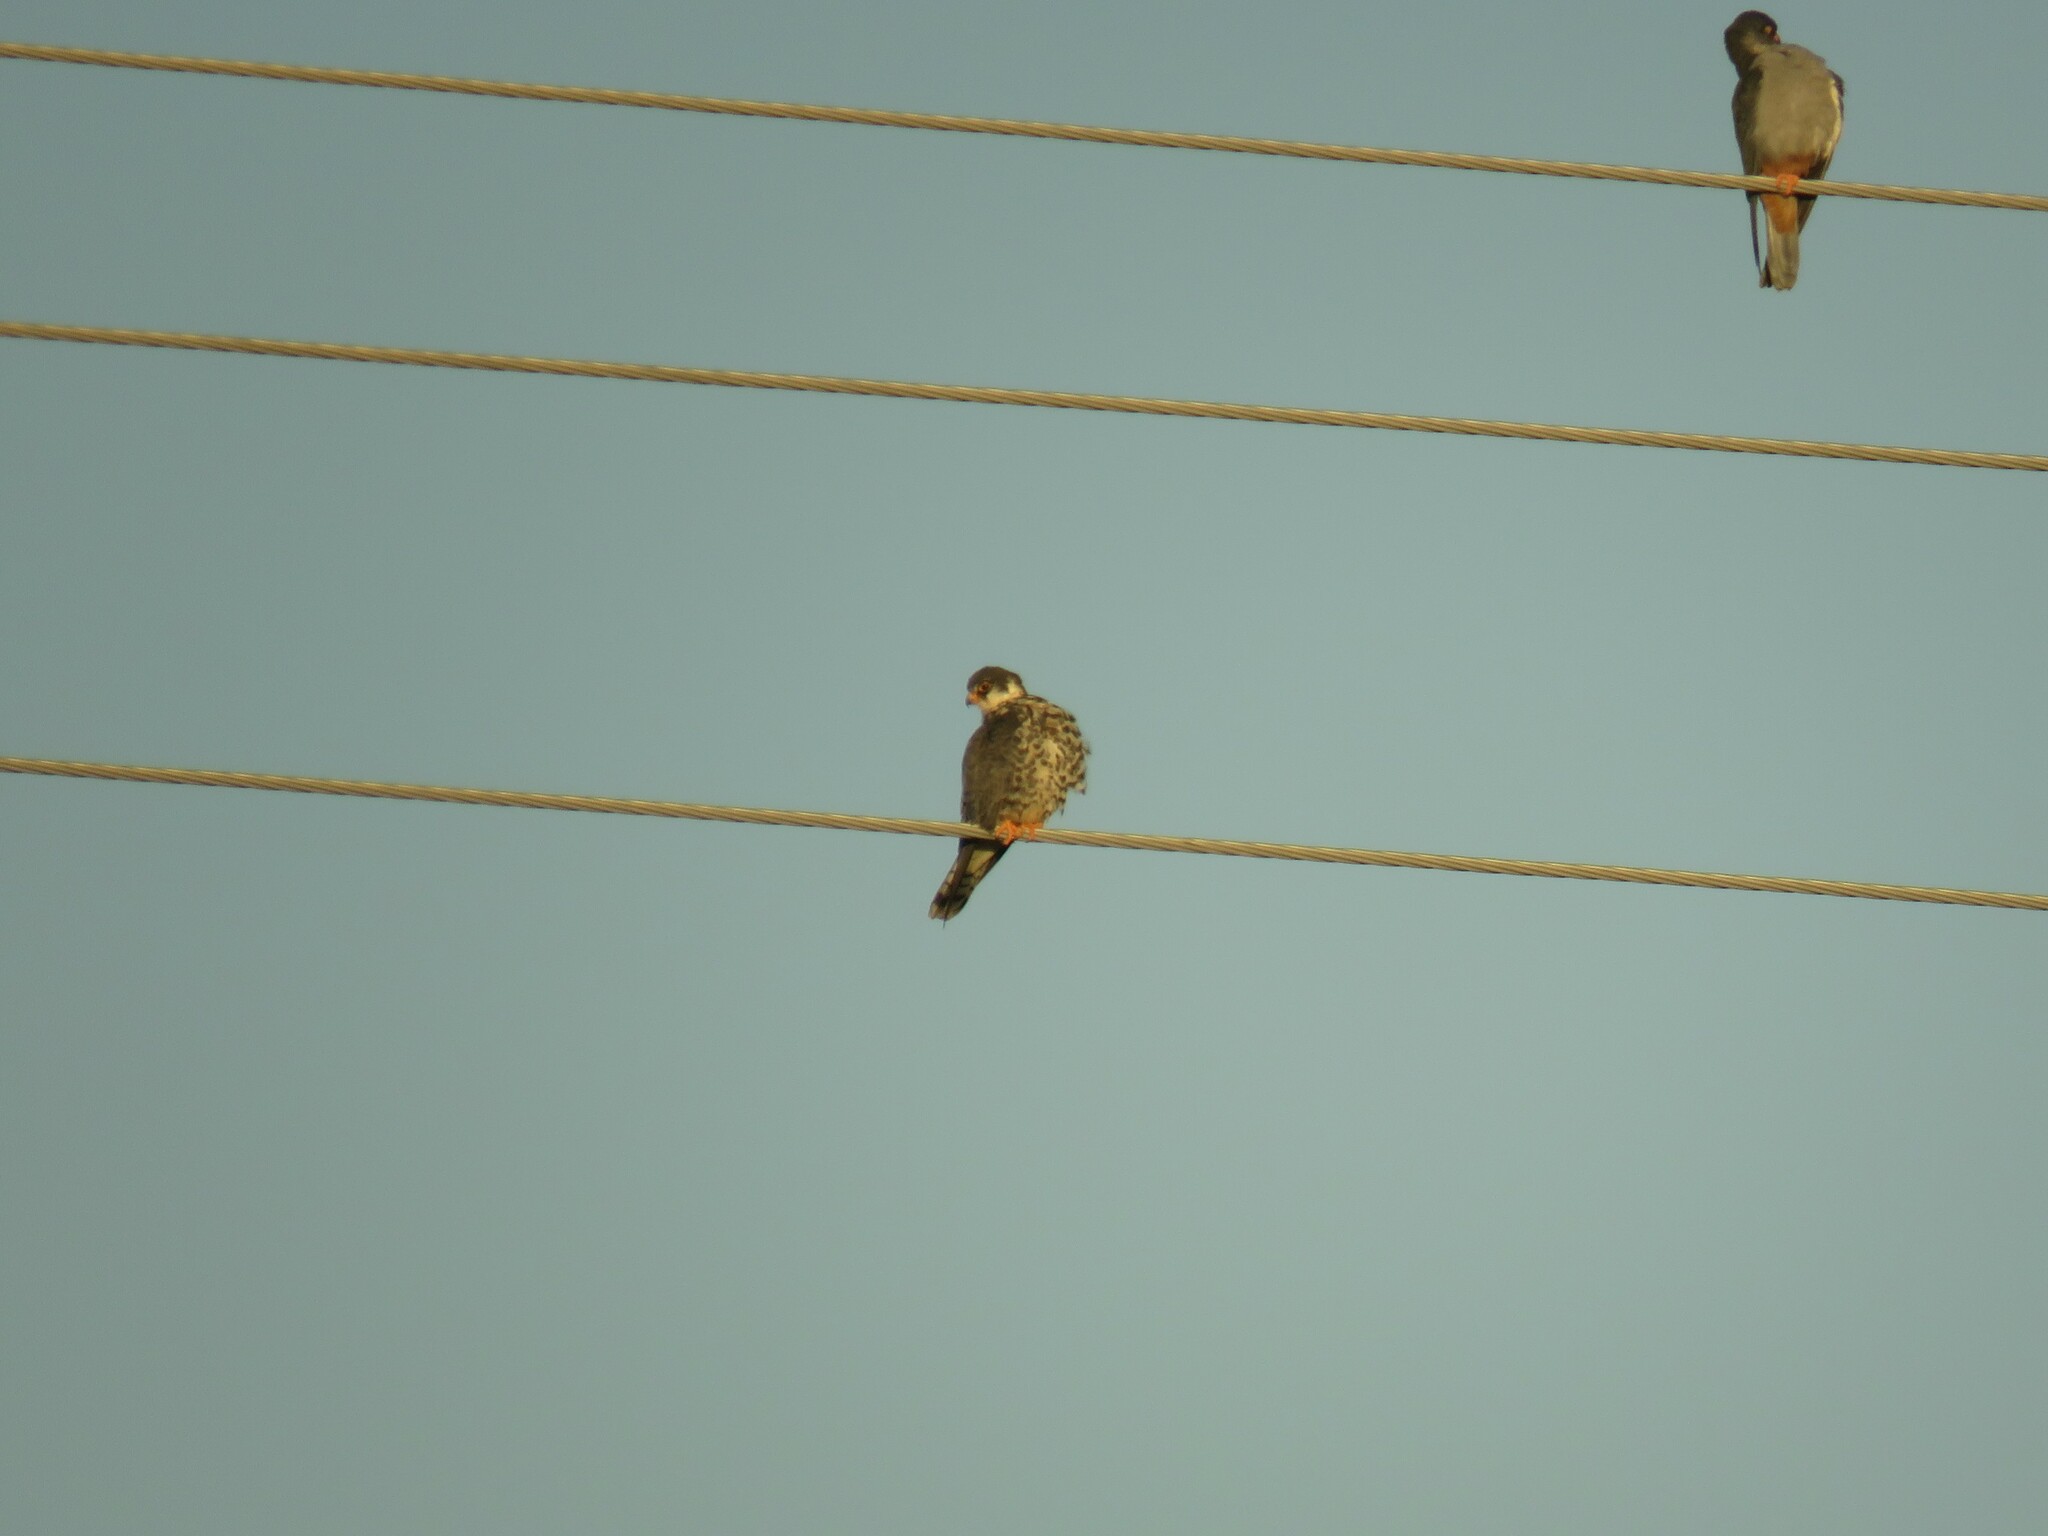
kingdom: Animalia
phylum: Chordata
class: Aves
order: Falconiformes
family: Falconidae
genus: Falco
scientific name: Falco amurensis
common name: Amur falcon
